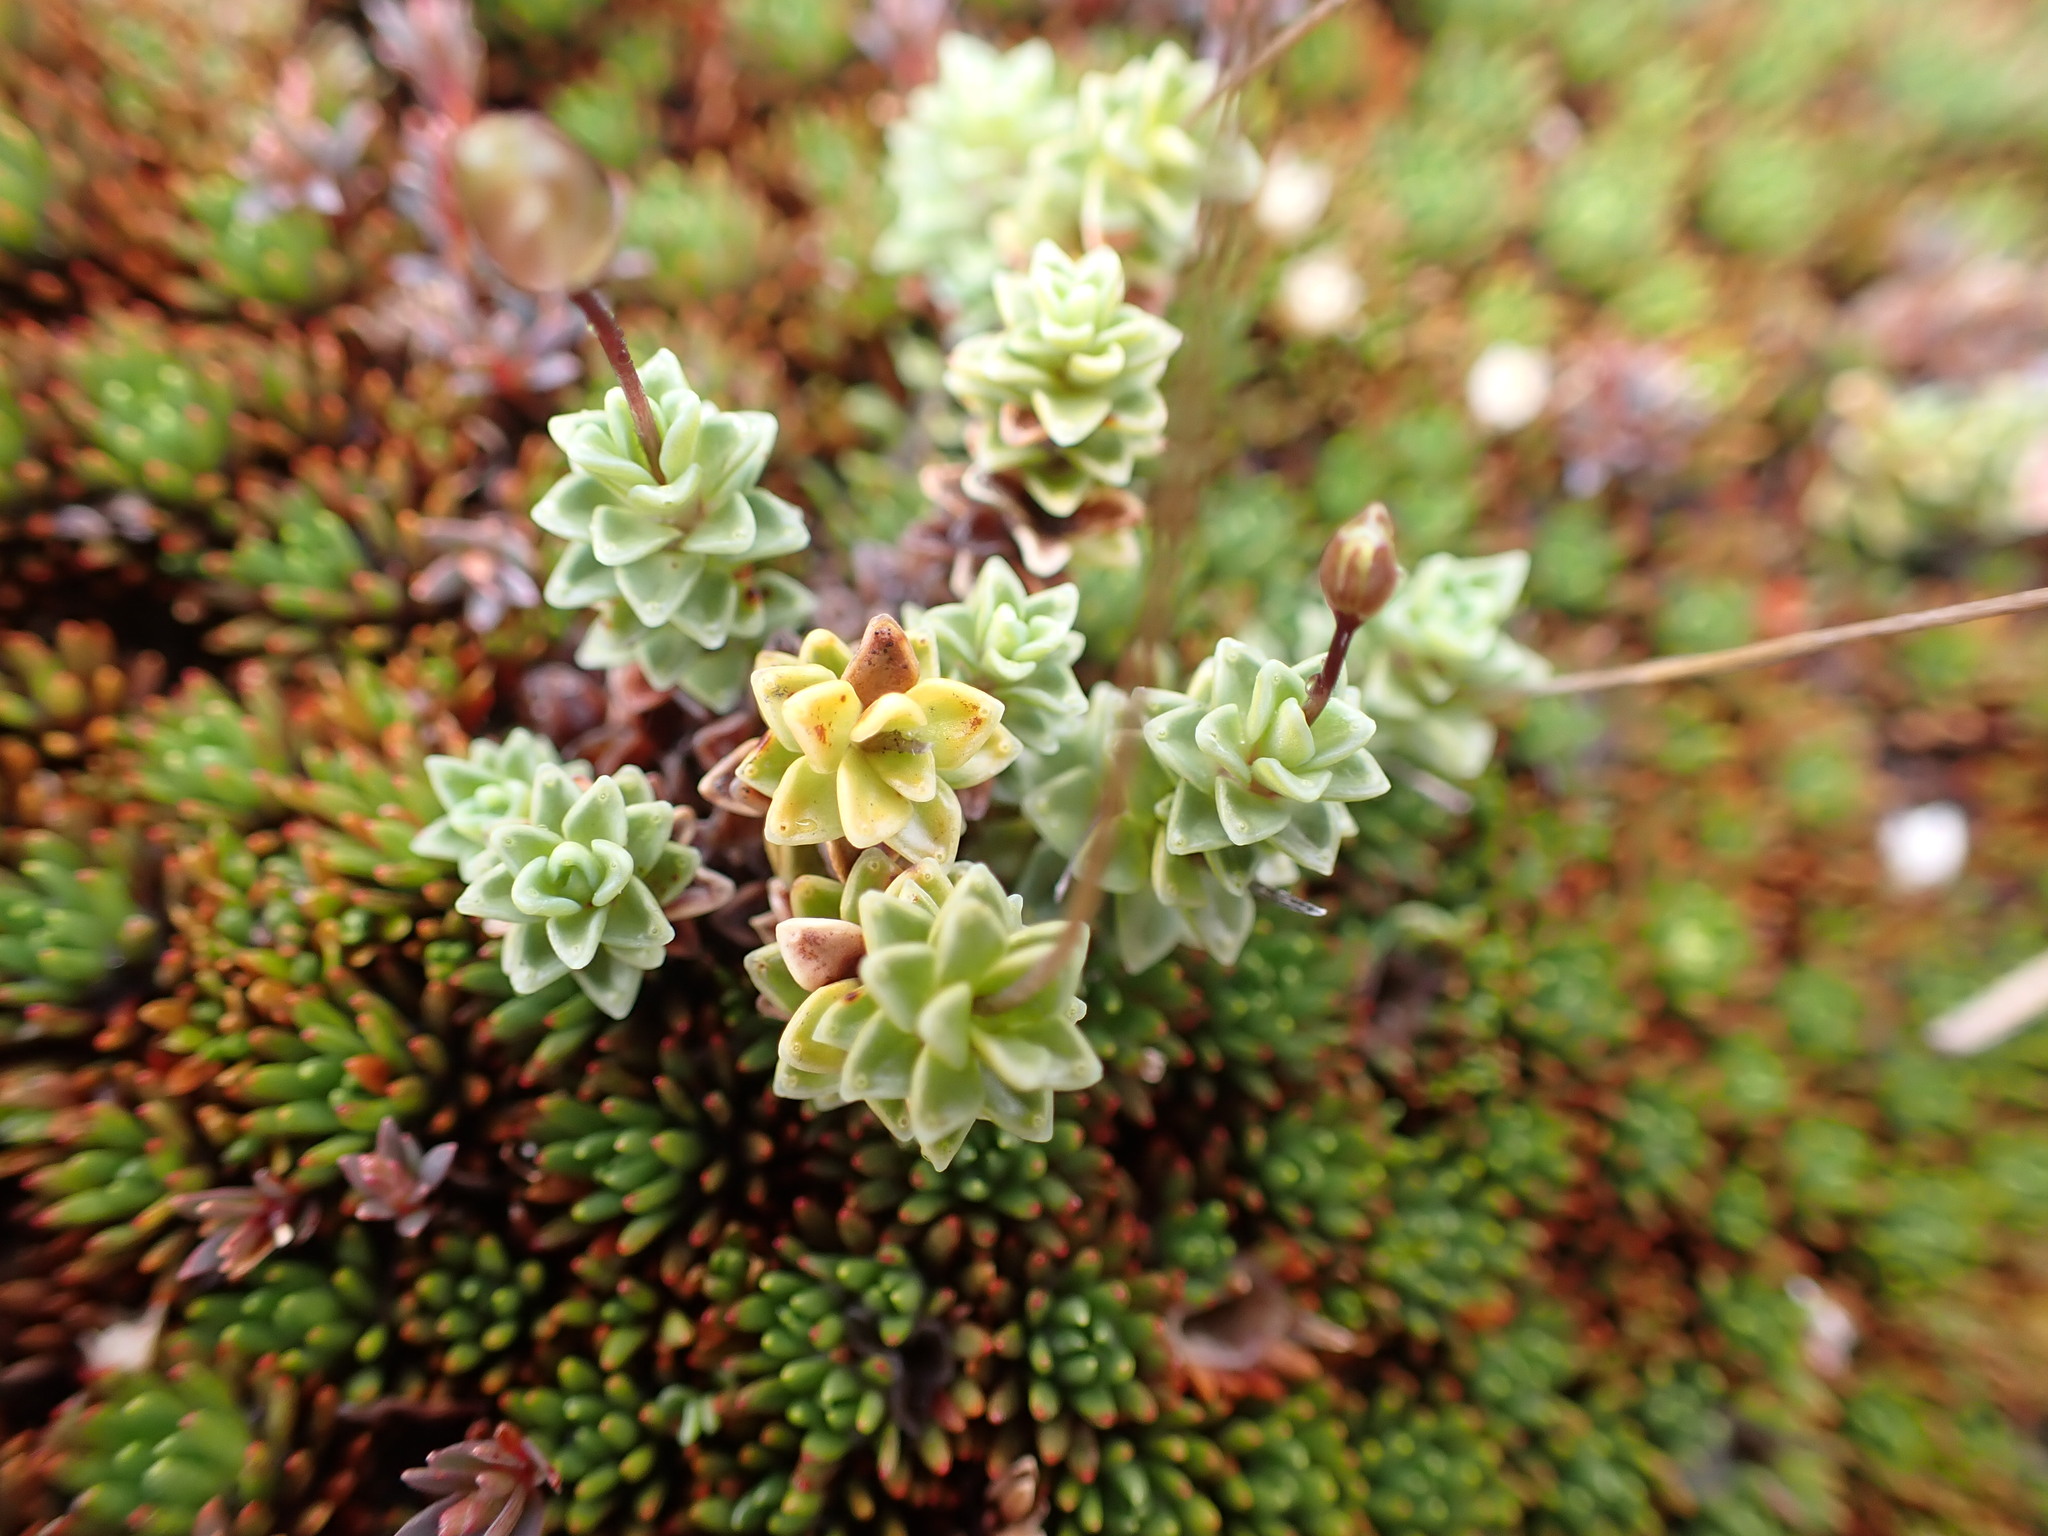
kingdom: Plantae
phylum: Tracheophyta
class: Magnoliopsida
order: Asterales
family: Stylidiaceae
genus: Forstera
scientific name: Forstera sedifolia
